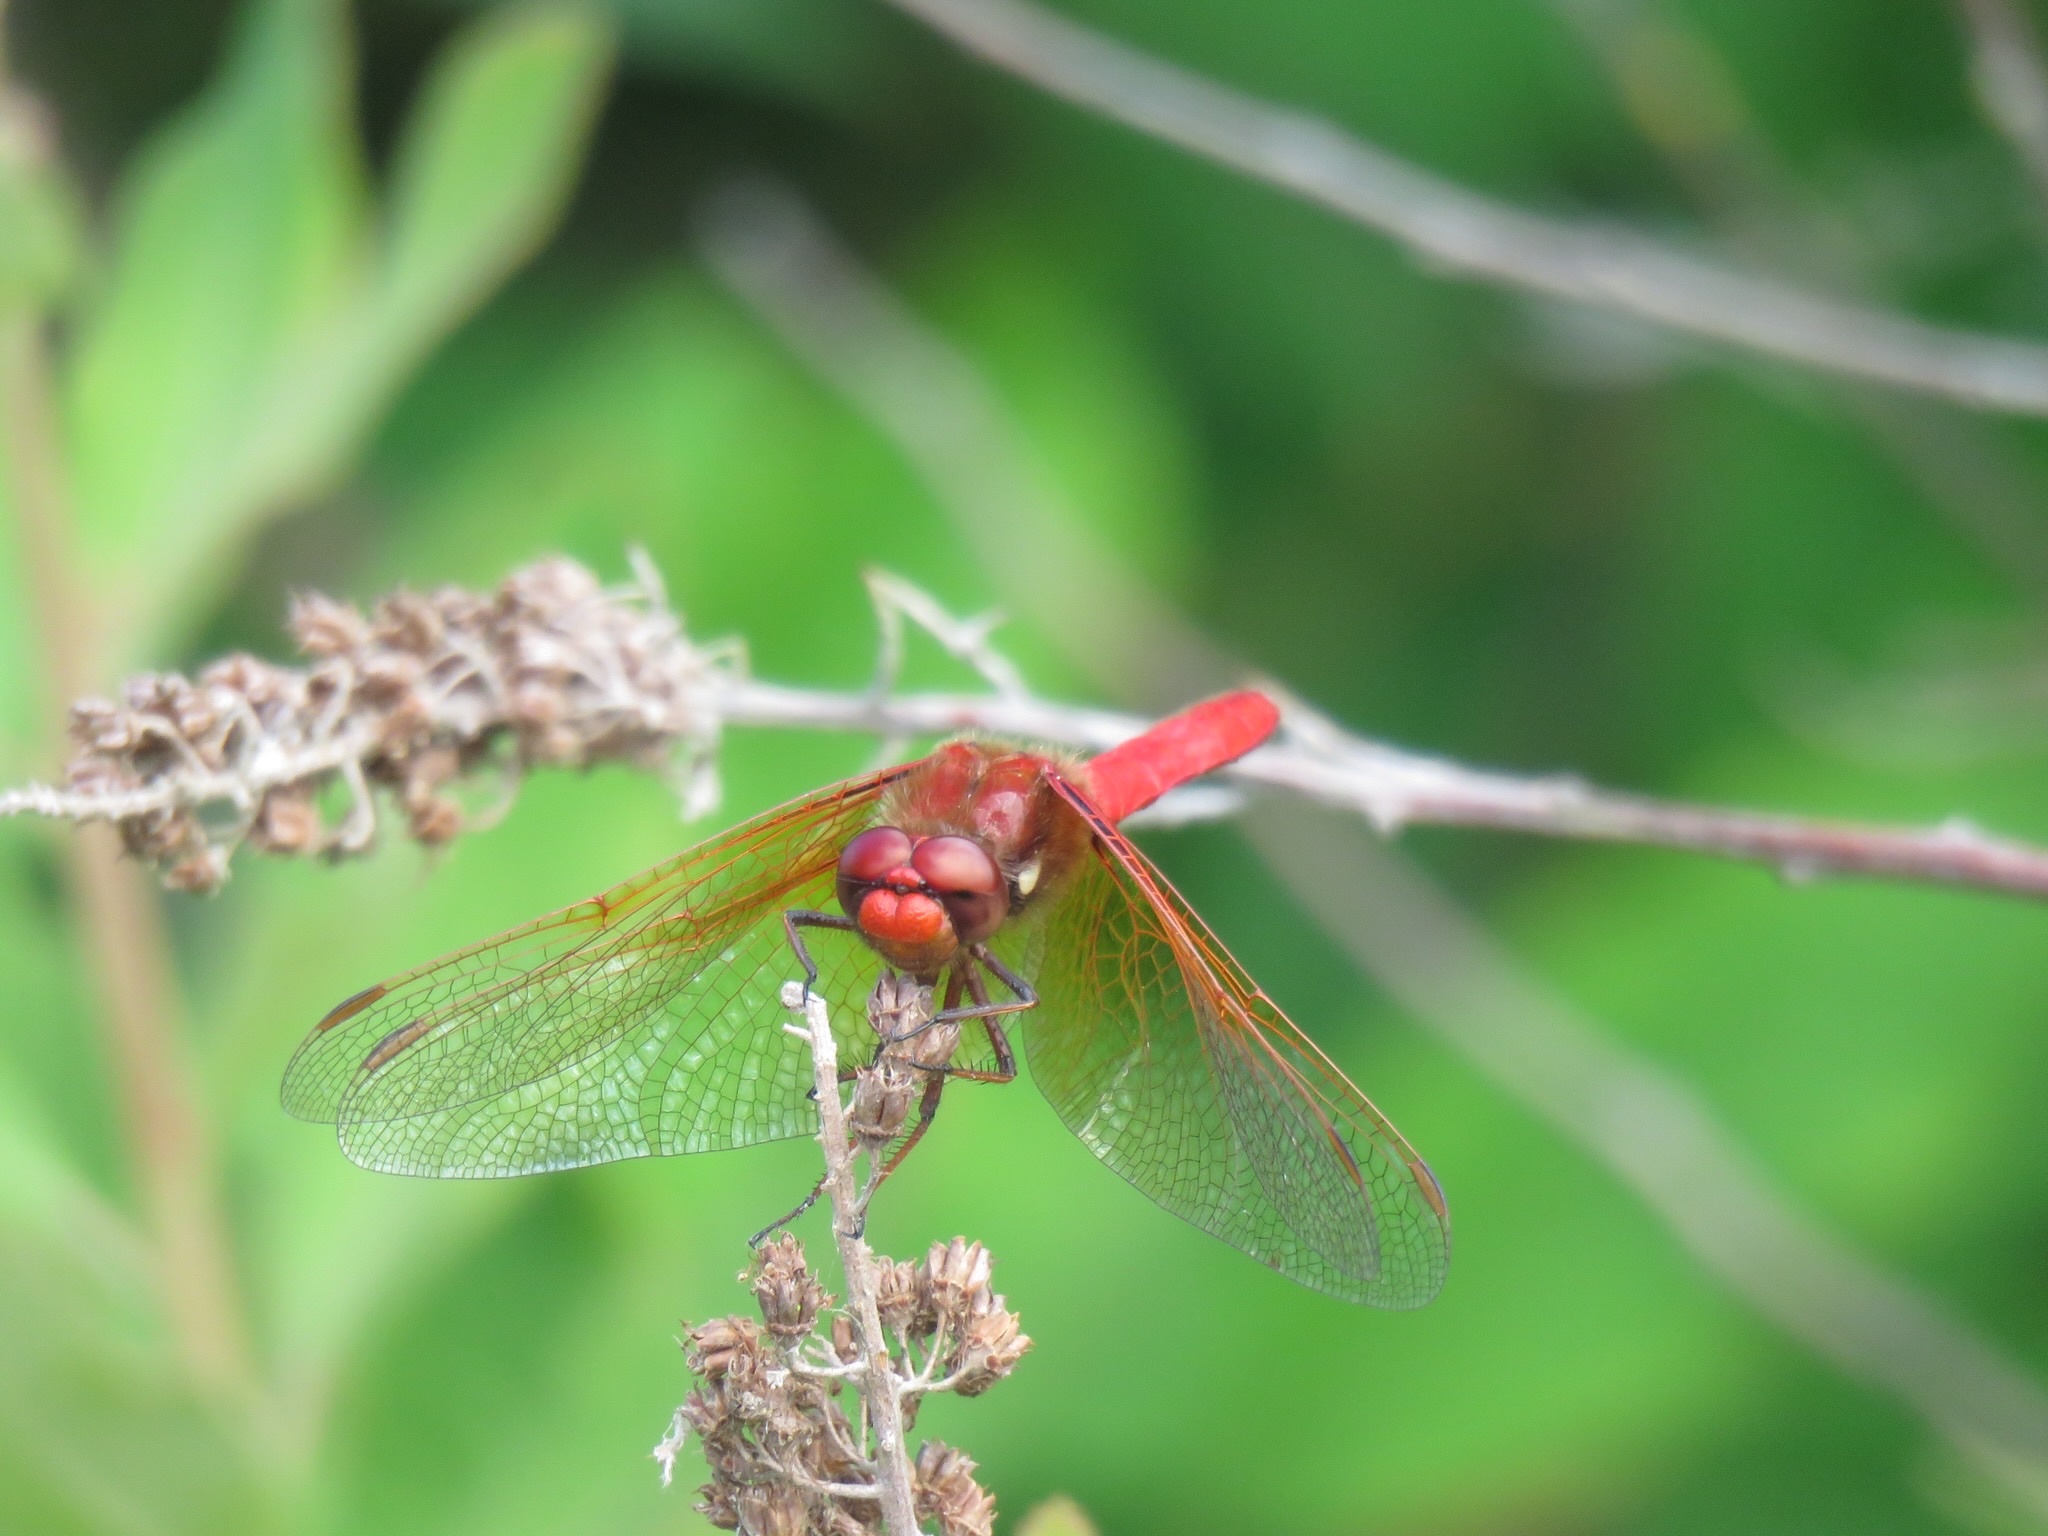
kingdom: Animalia
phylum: Arthropoda
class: Insecta
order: Odonata
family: Libellulidae
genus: Sympetrum
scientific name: Sympetrum illotum
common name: Cardinal meadowhawk
